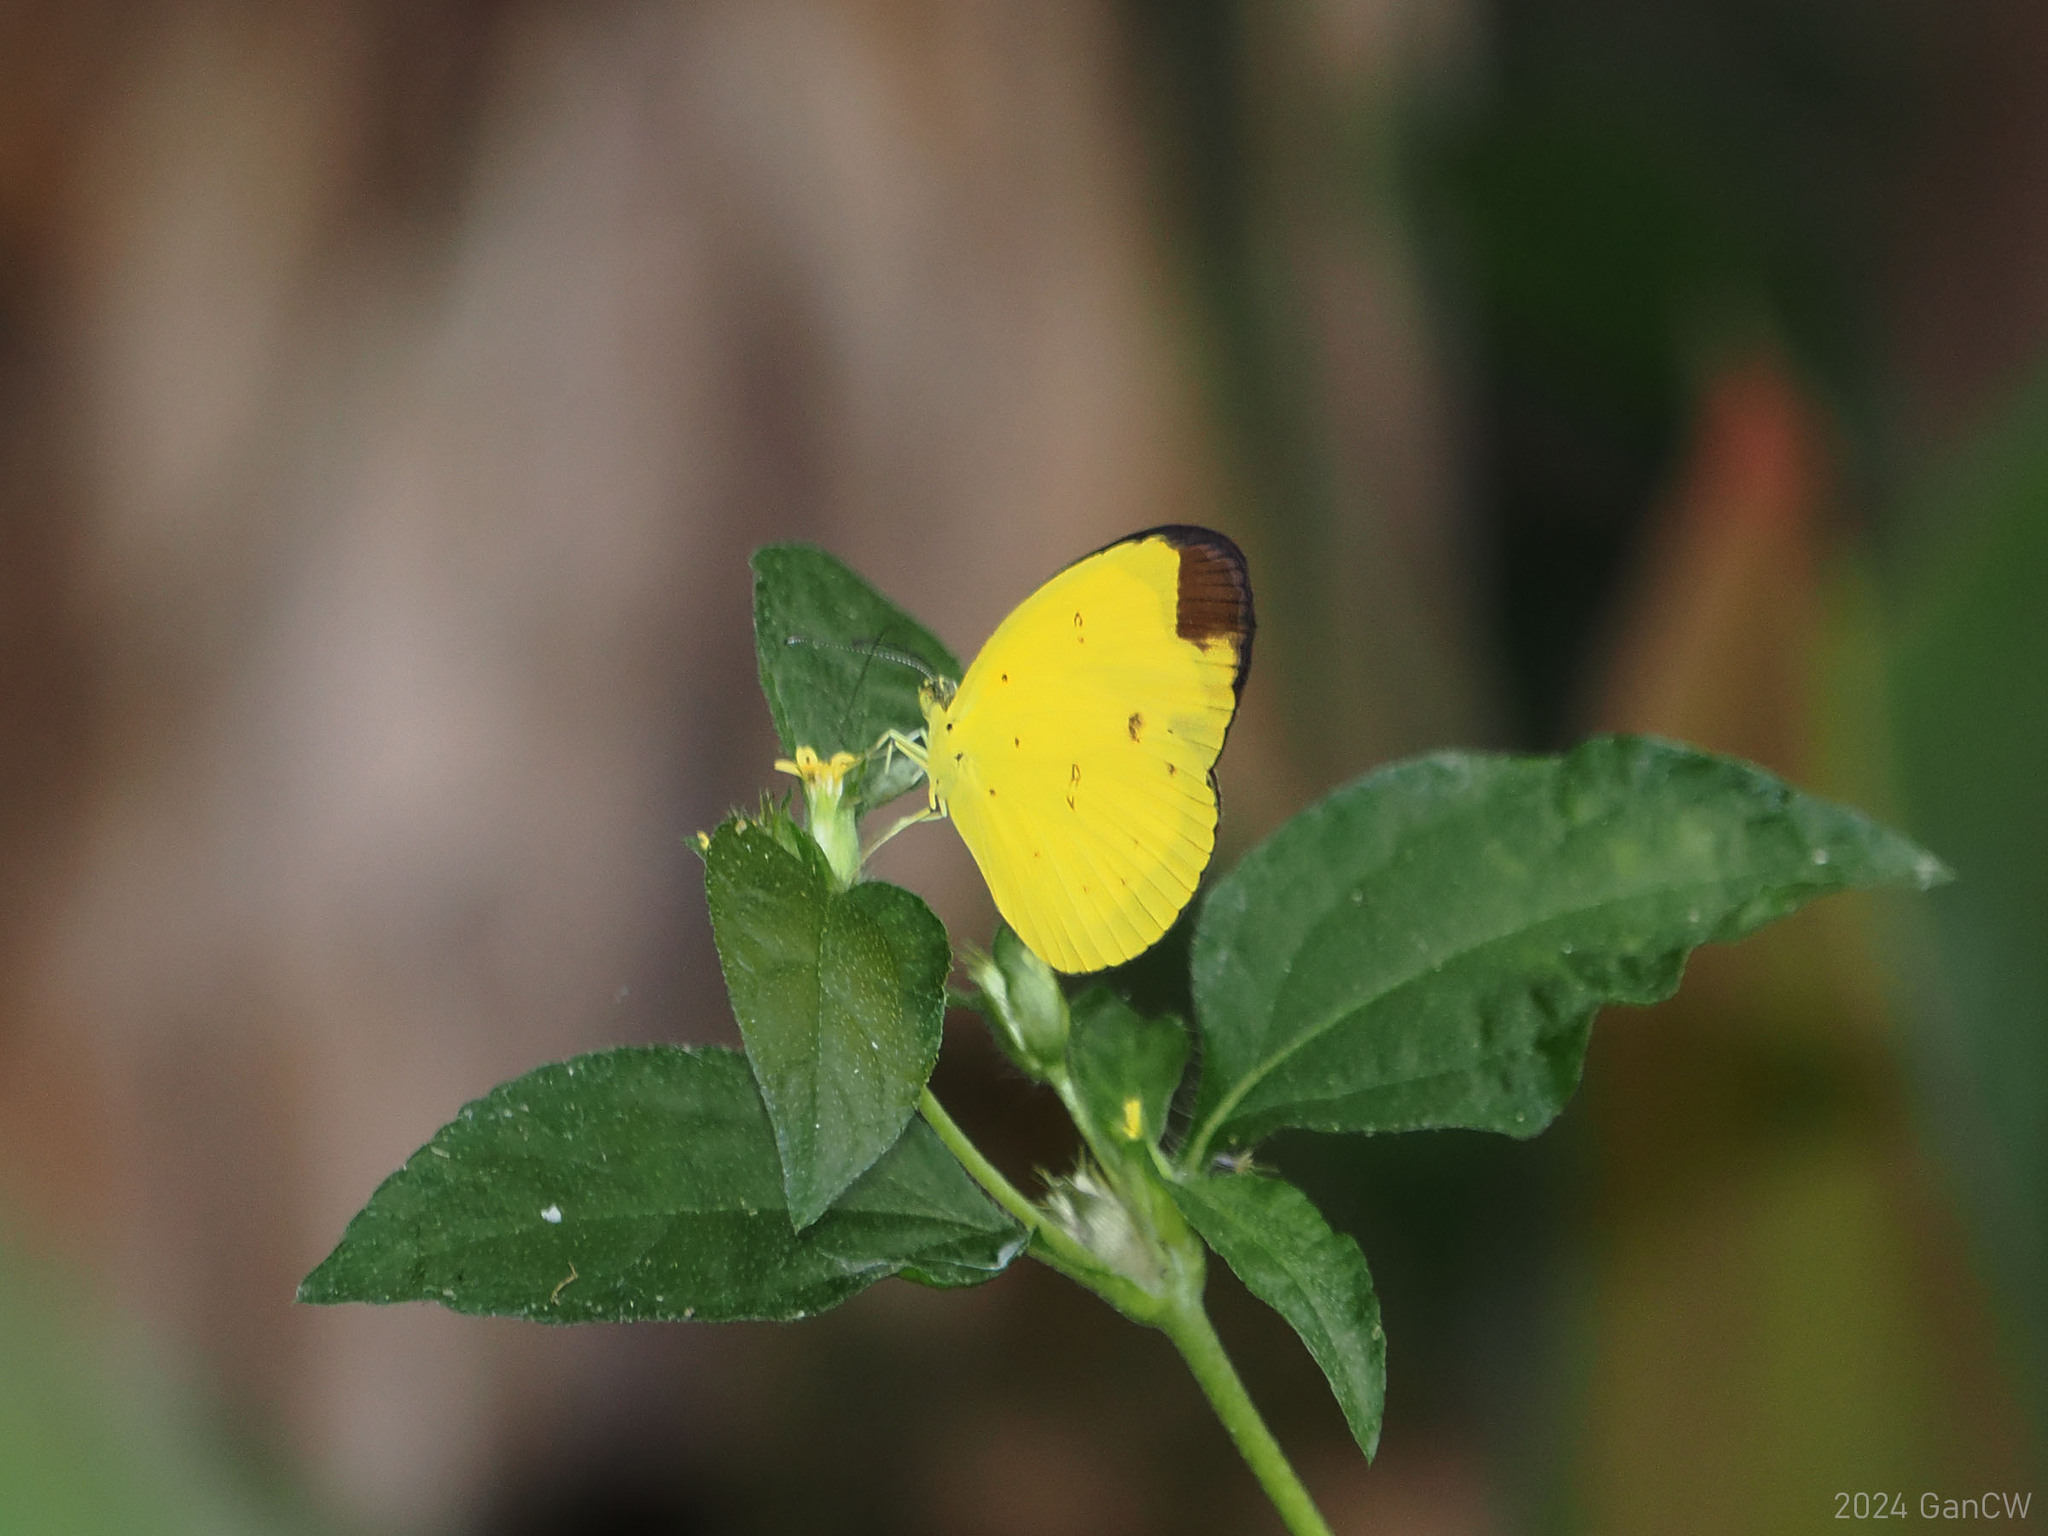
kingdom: Animalia
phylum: Arthropoda
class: Insecta
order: Lepidoptera
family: Pieridae
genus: Eurema
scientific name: Eurema sarilata
